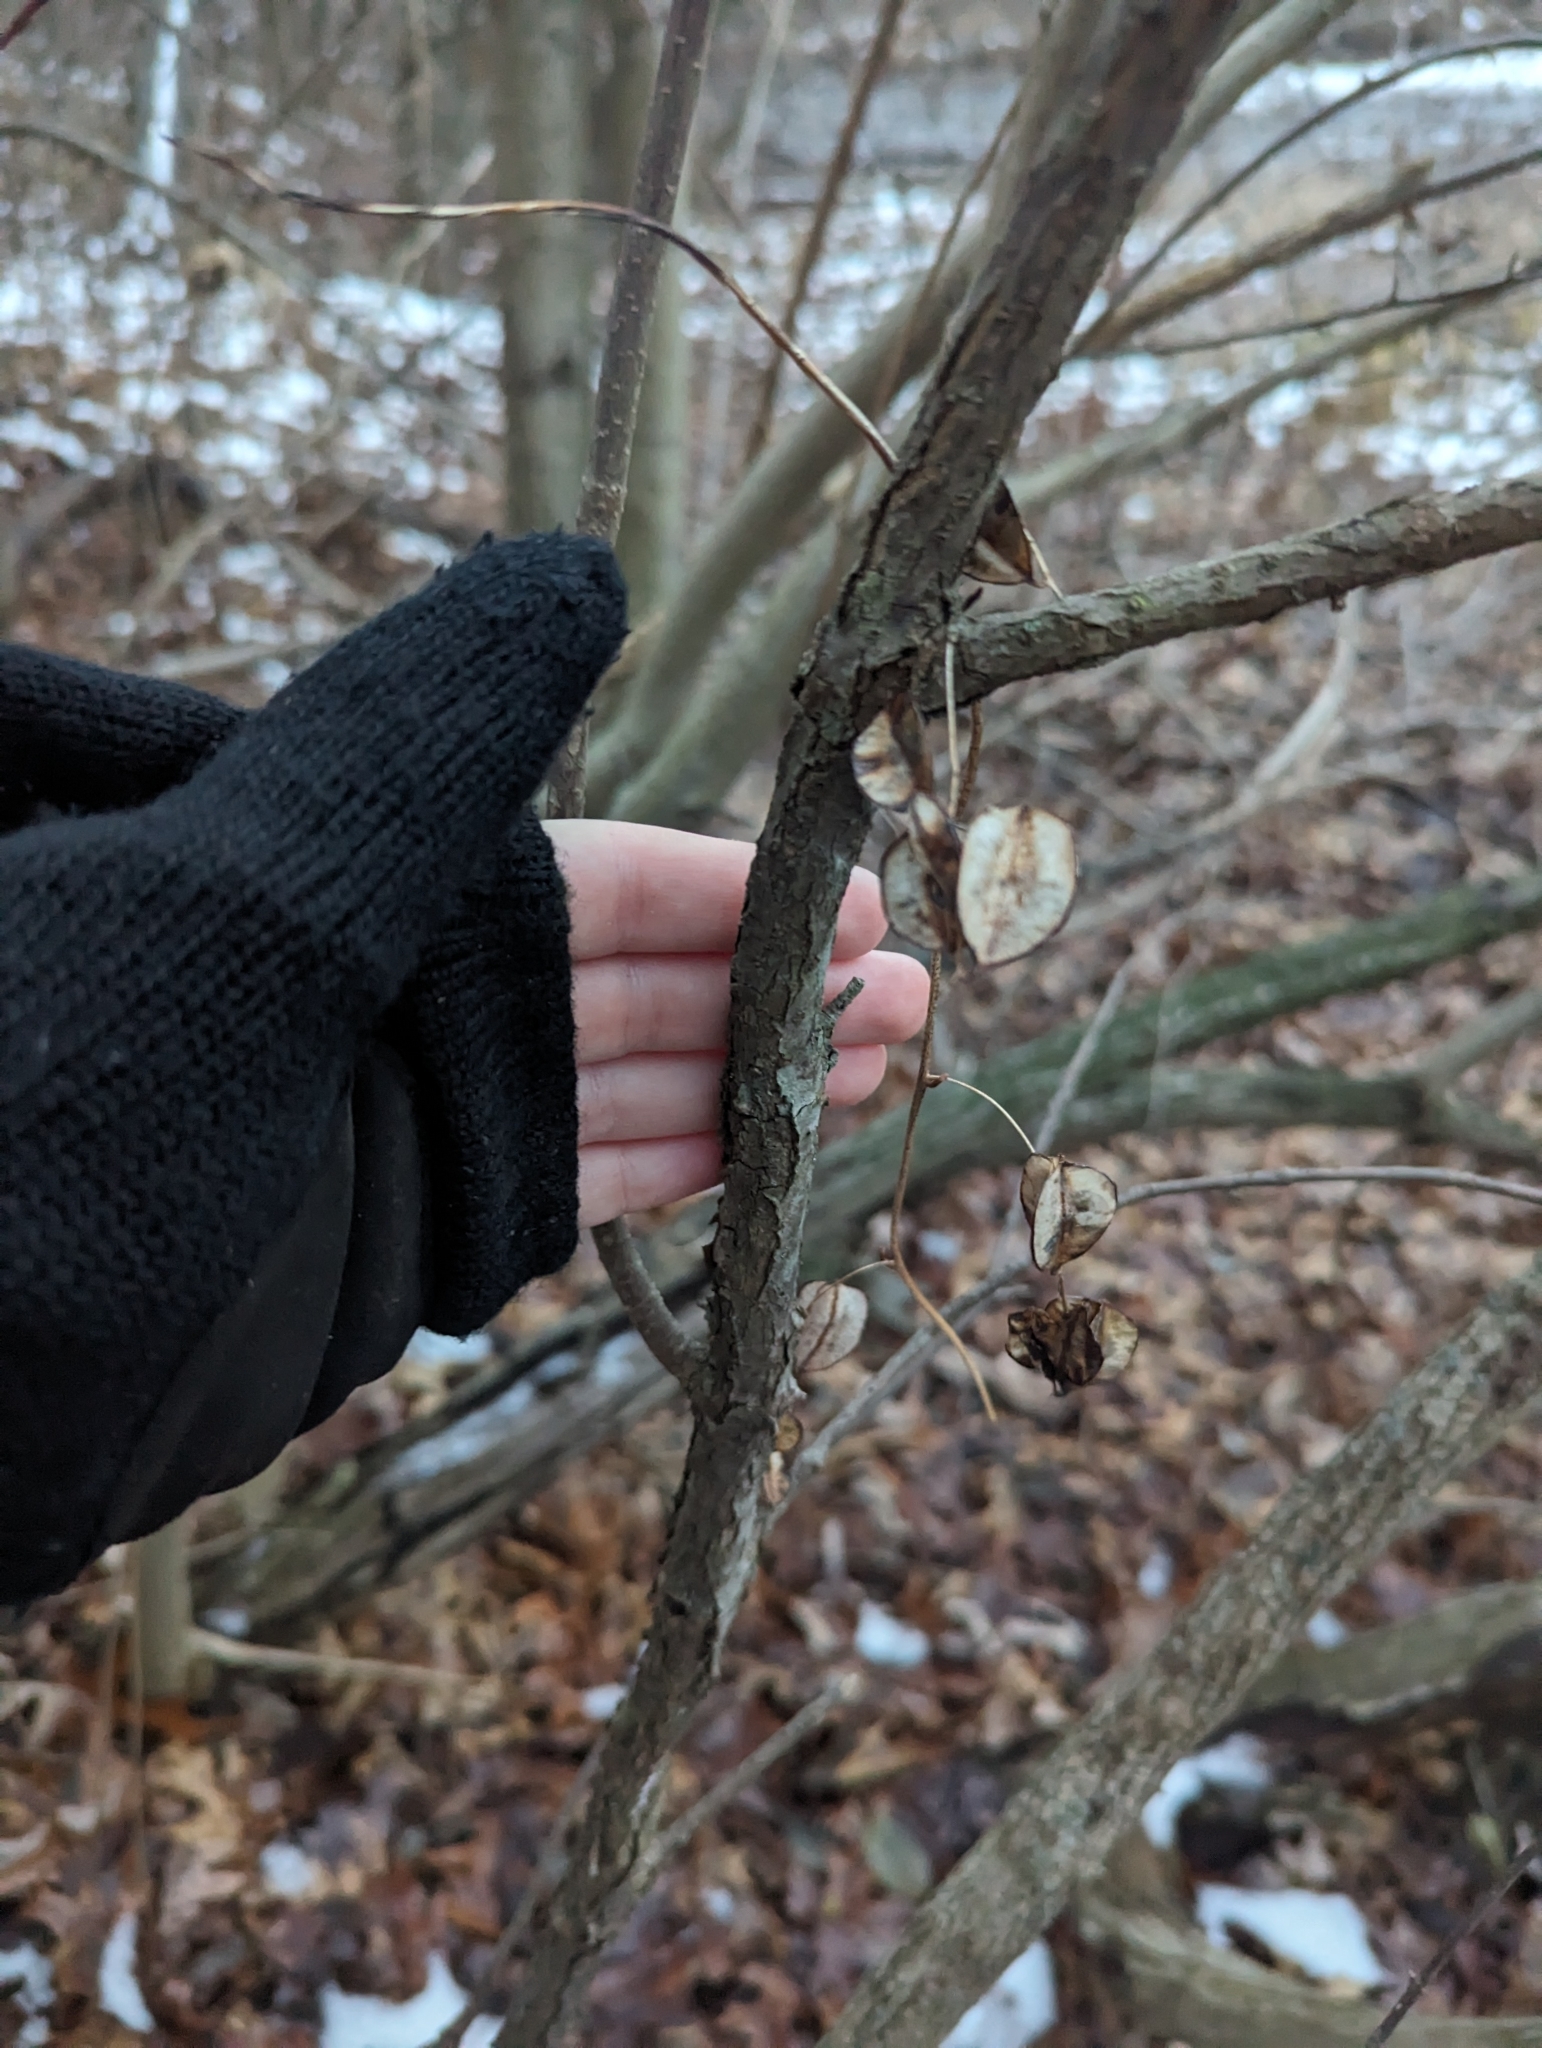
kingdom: Plantae
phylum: Tracheophyta
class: Liliopsida
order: Dioscoreales
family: Dioscoreaceae
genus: Dioscorea
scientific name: Dioscorea villosa
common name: Wild yam
